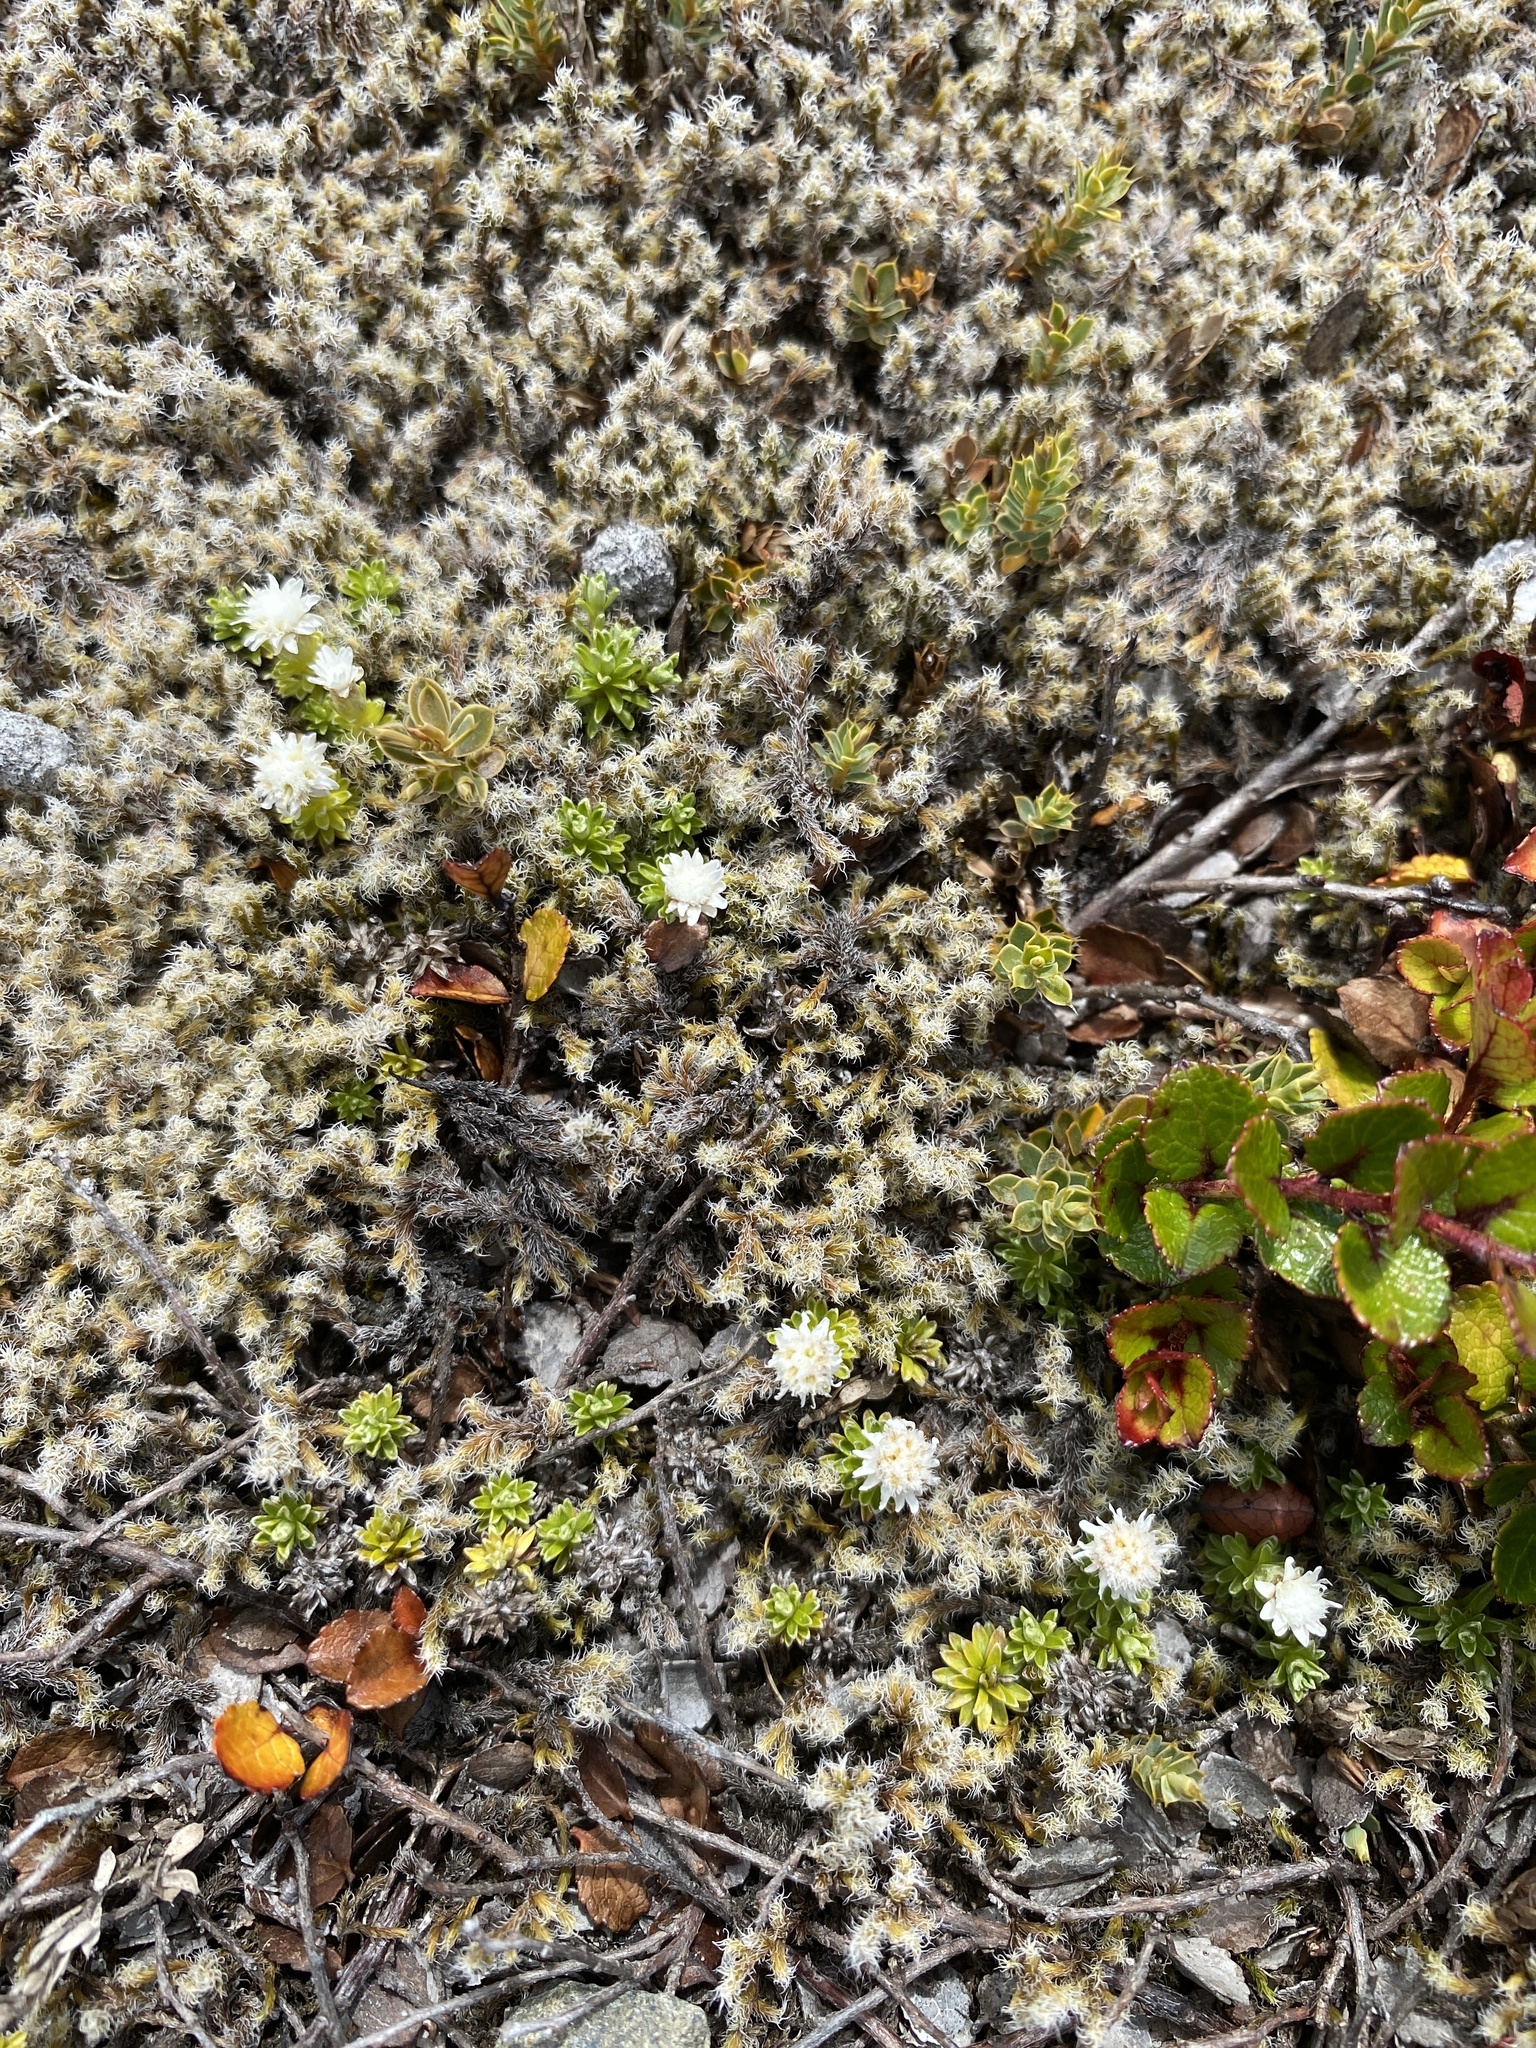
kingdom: Plantae
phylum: Tracheophyta
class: Magnoliopsida
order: Asterales
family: Asteraceae
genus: Raoulia
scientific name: Raoulia subsericea
